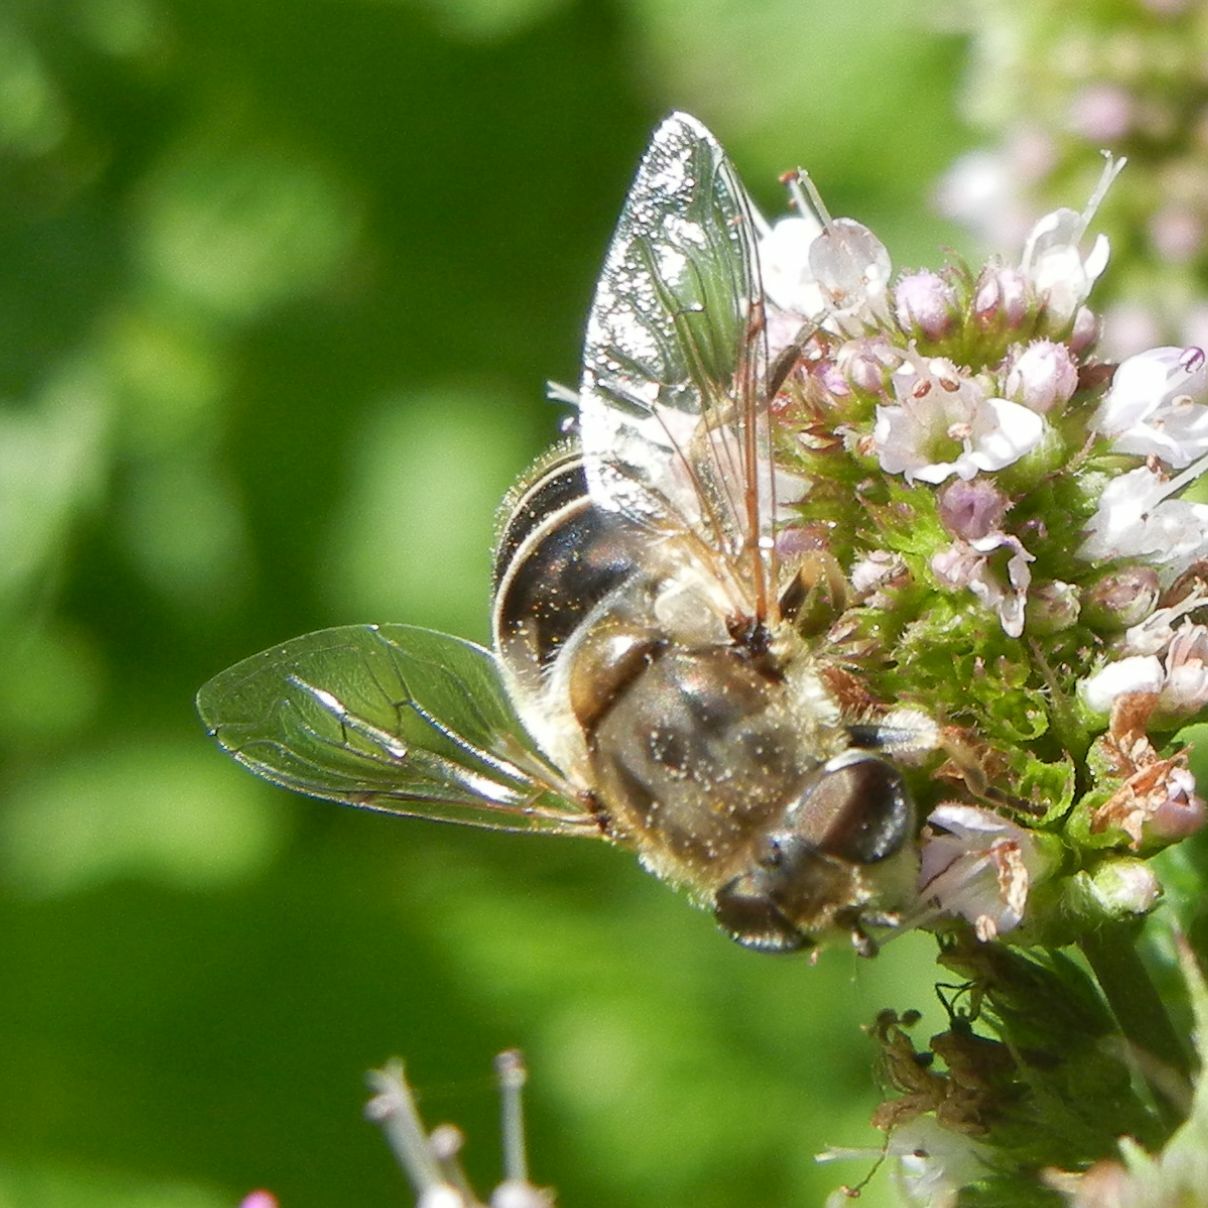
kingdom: Animalia
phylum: Arthropoda
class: Insecta
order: Diptera
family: Syrphidae
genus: Eristalis
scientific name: Eristalis arbustorum
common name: Hover fly
